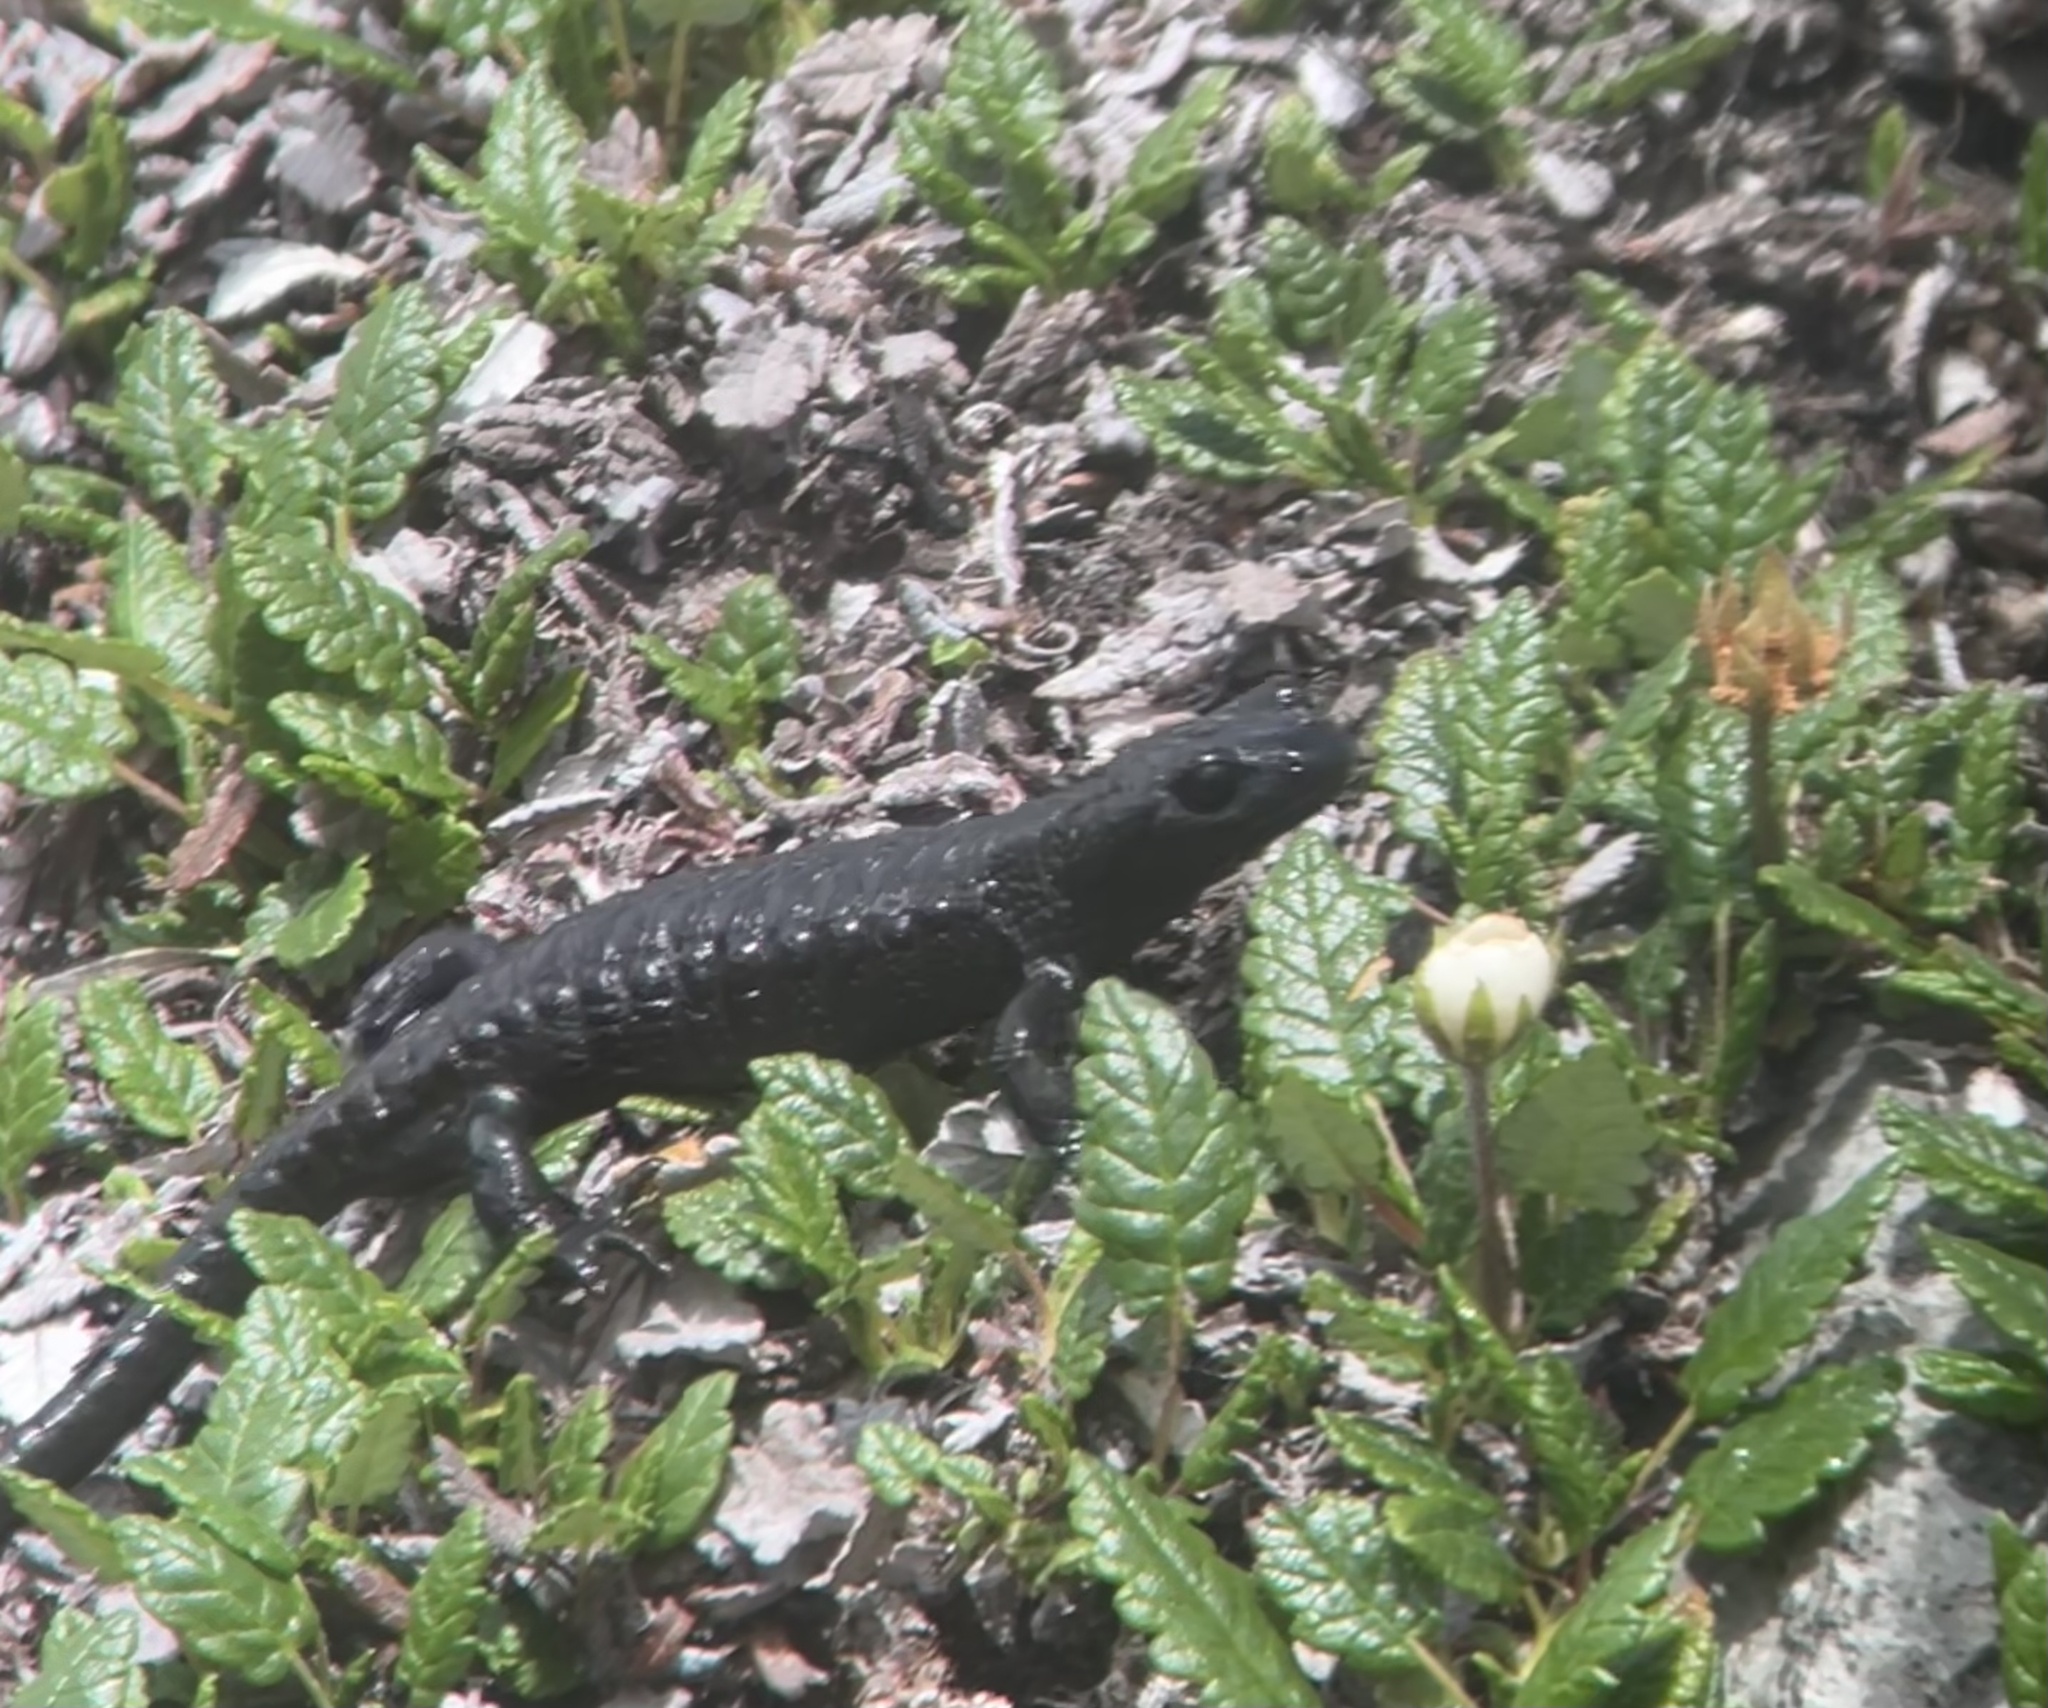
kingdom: Animalia
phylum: Chordata
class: Amphibia
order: Caudata
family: Salamandridae
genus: Salamandra
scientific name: Salamandra atra
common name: Alpine salamander
